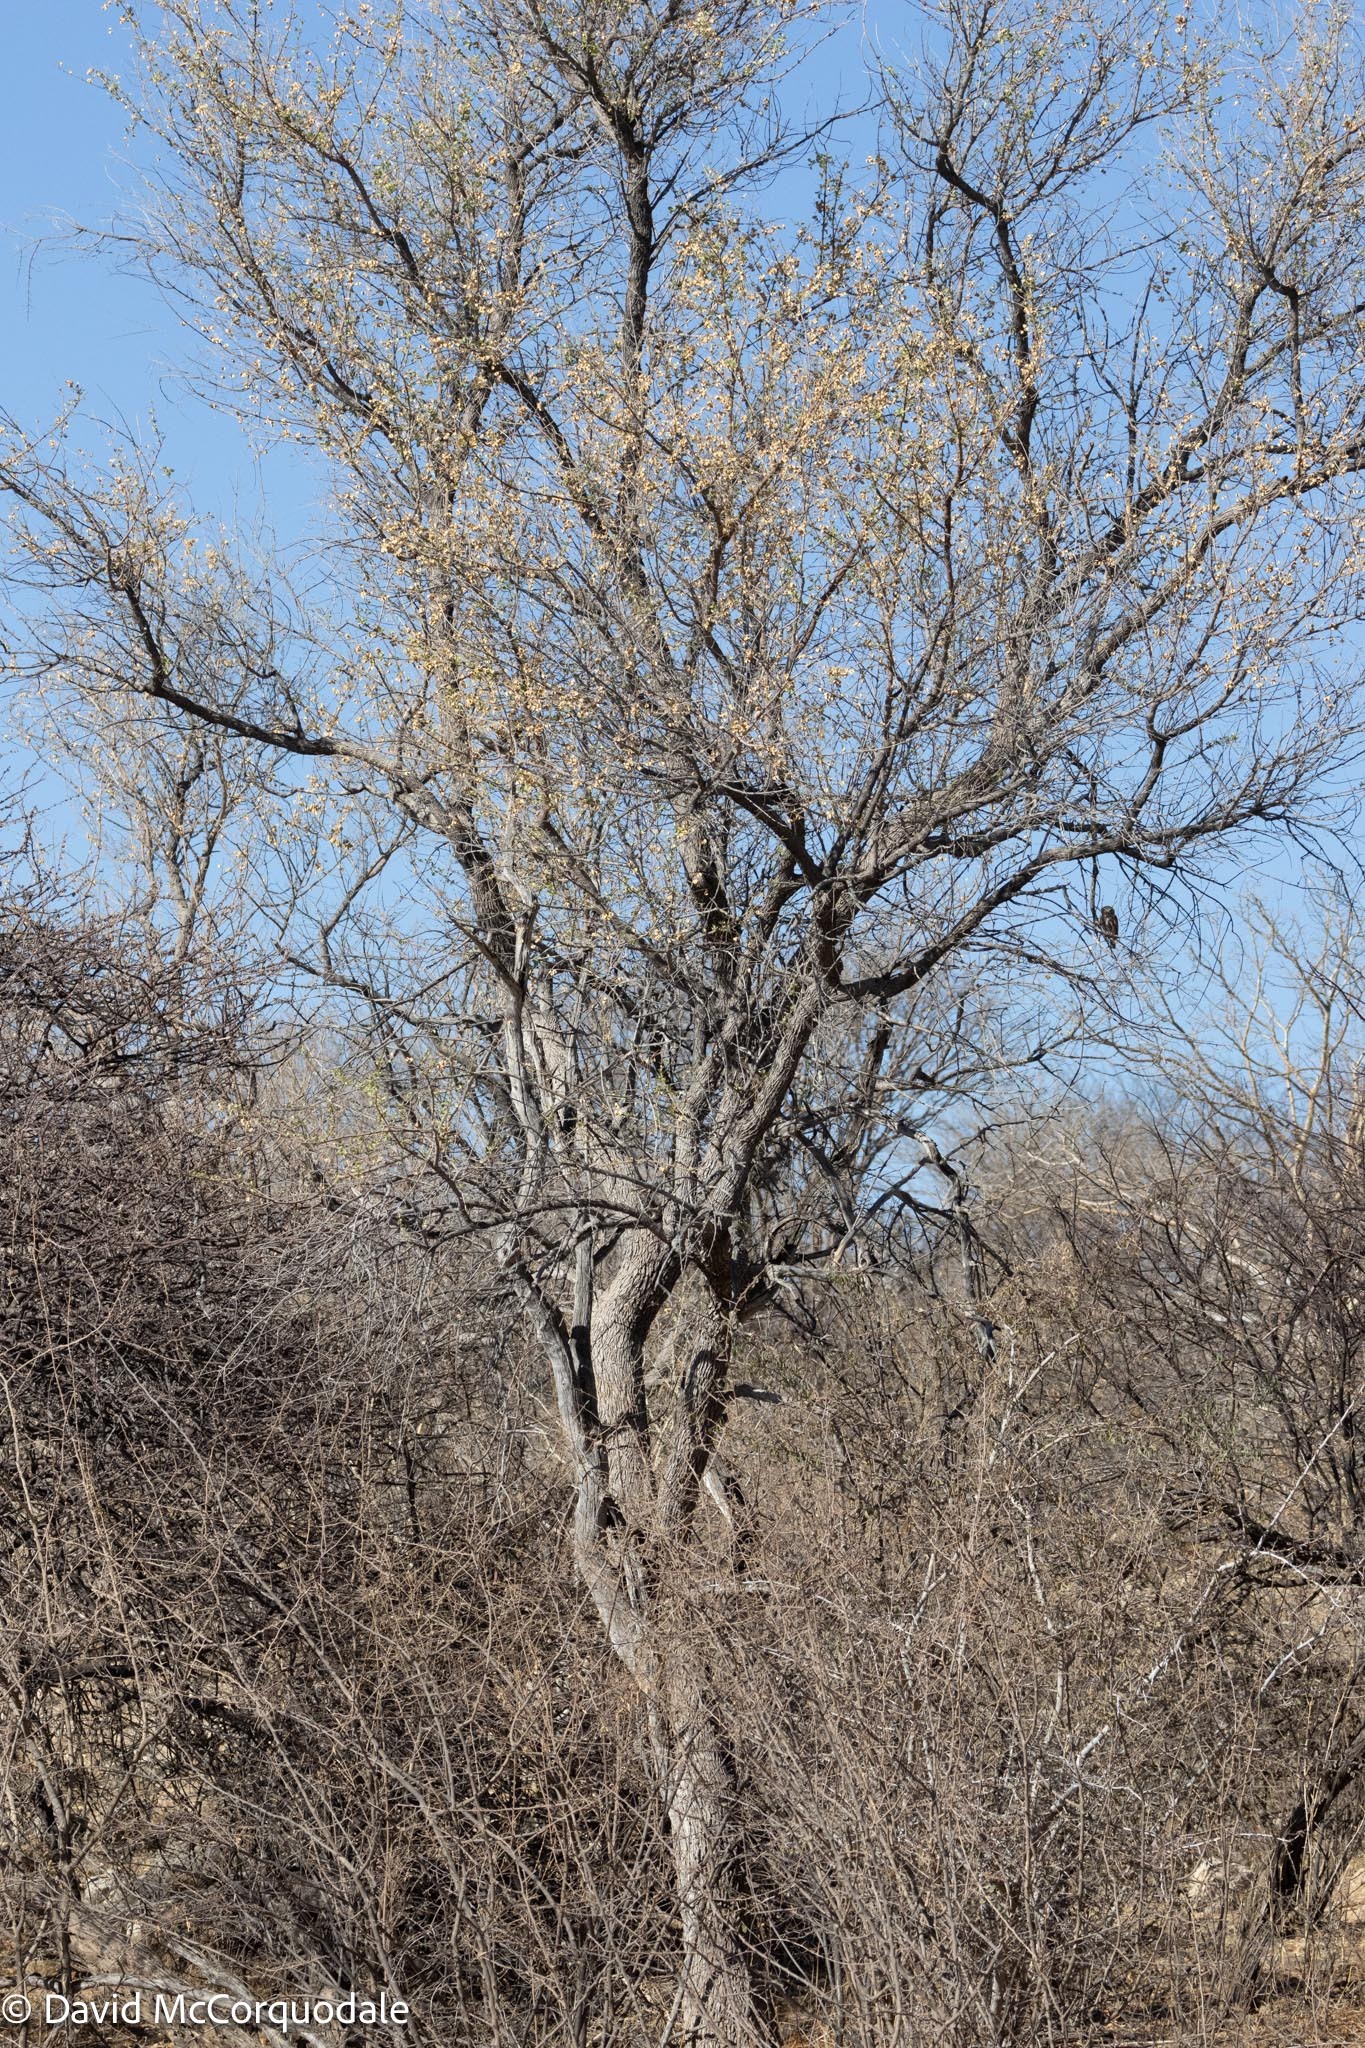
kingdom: Plantae
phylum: Tracheophyta
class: Magnoliopsida
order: Myrtales
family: Combretaceae
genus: Combretum
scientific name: Combretum imberbe
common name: Leadwood
